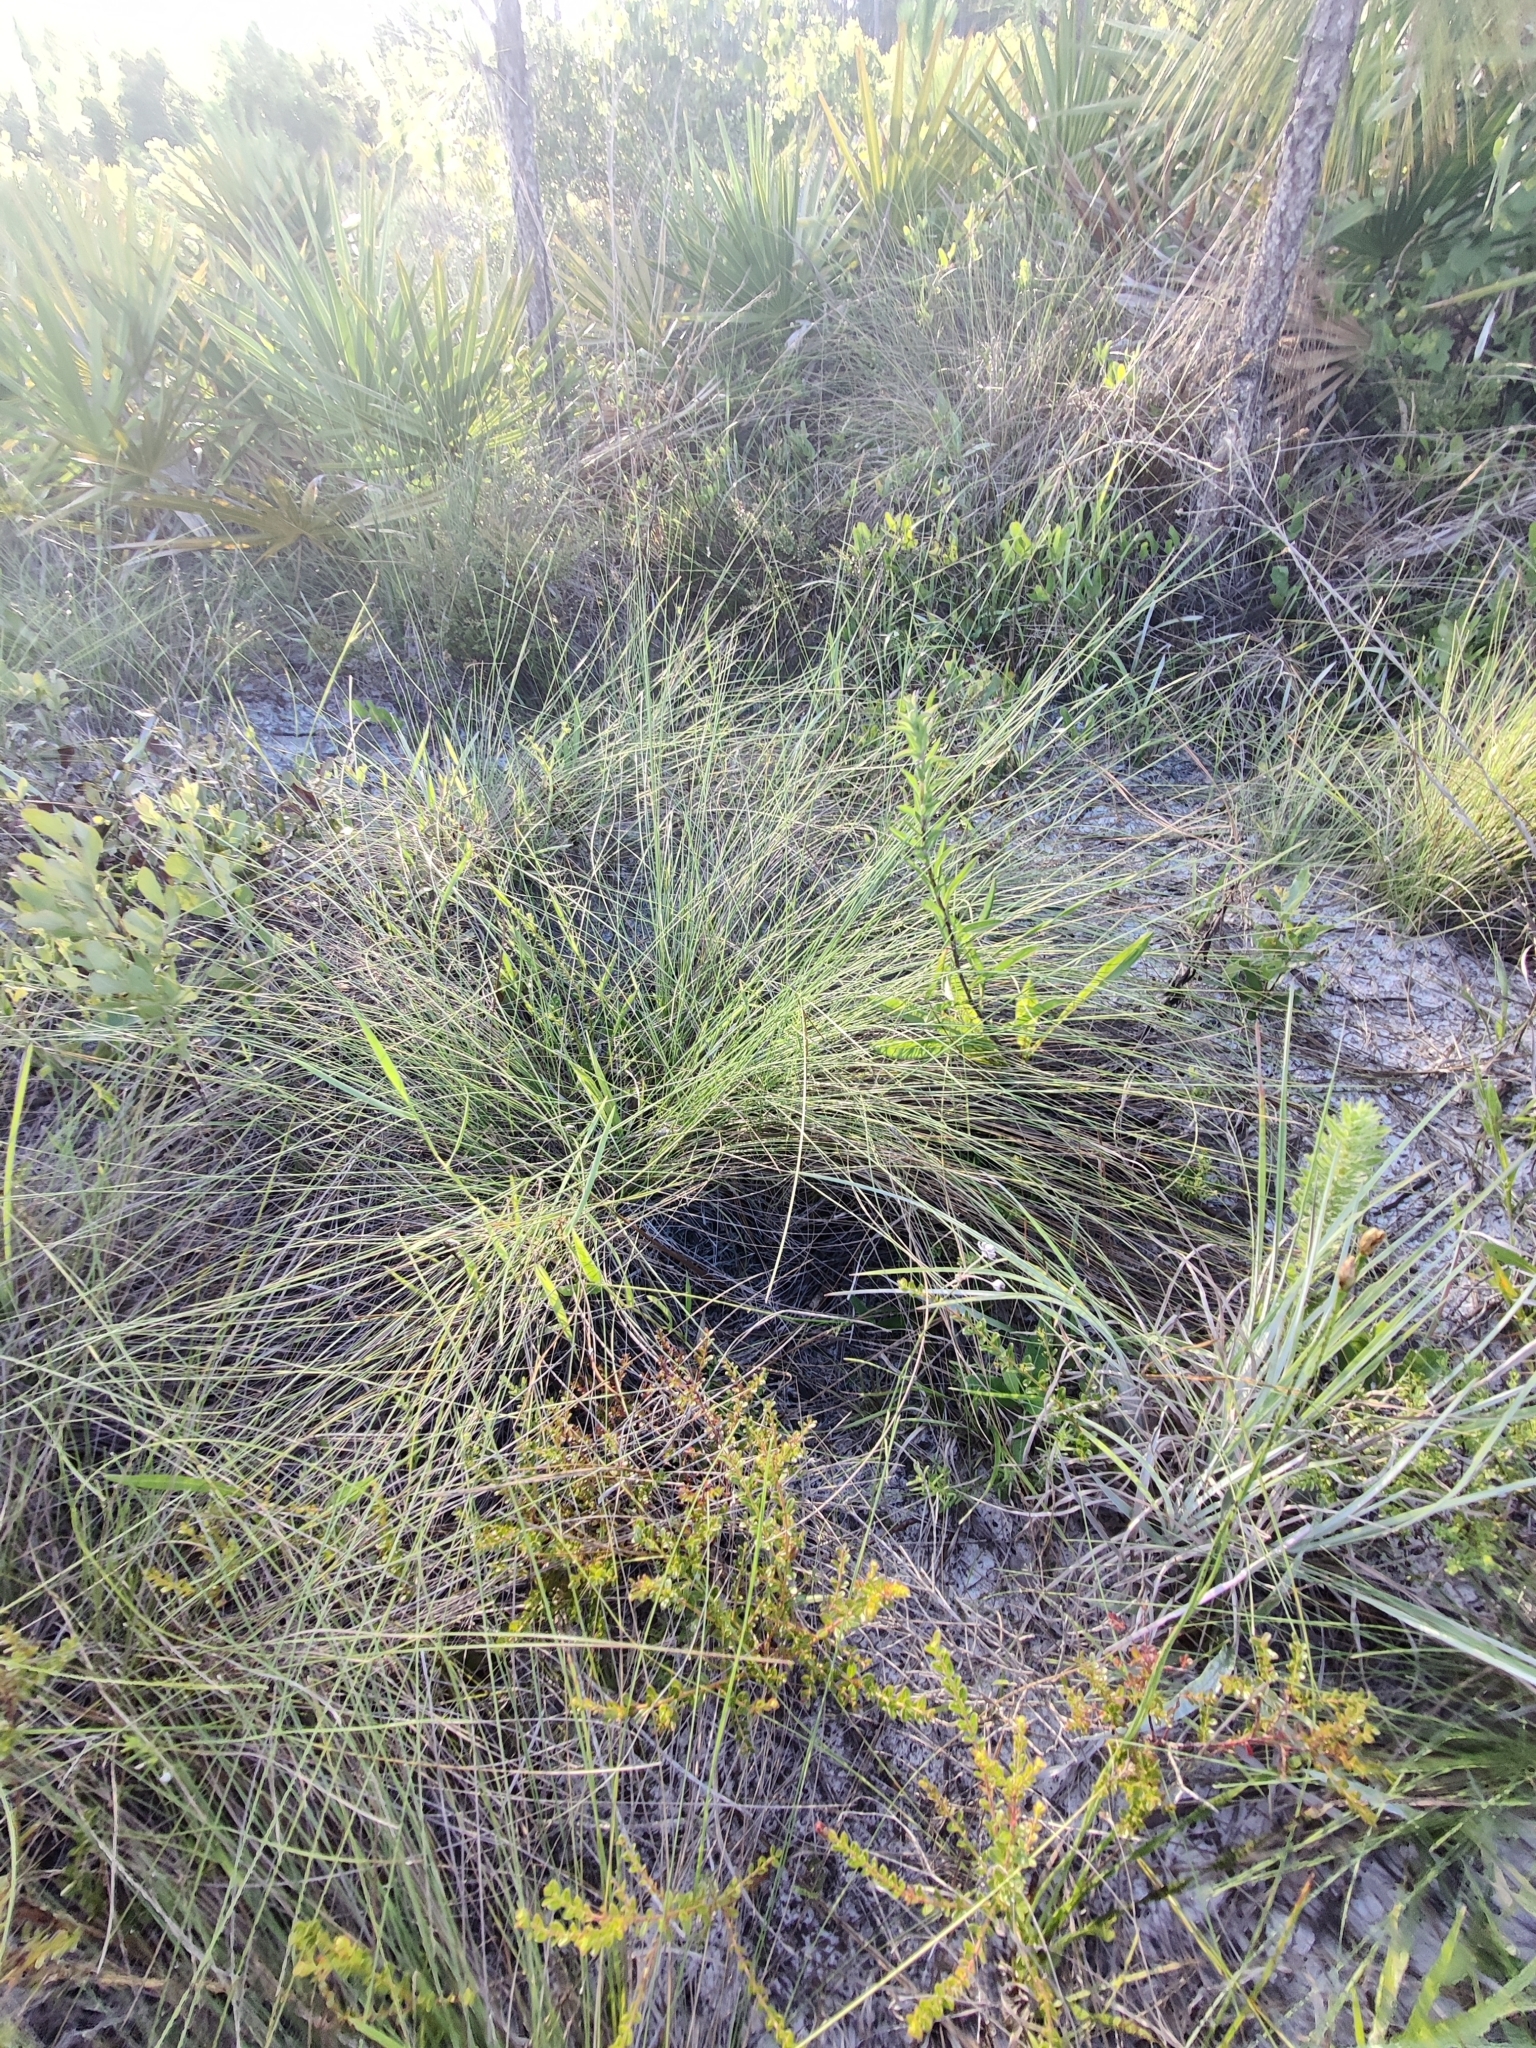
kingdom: Plantae
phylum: Tracheophyta
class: Magnoliopsida
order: Gentianales
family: Apocynaceae
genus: Asclepias
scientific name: Asclepias cinerea
